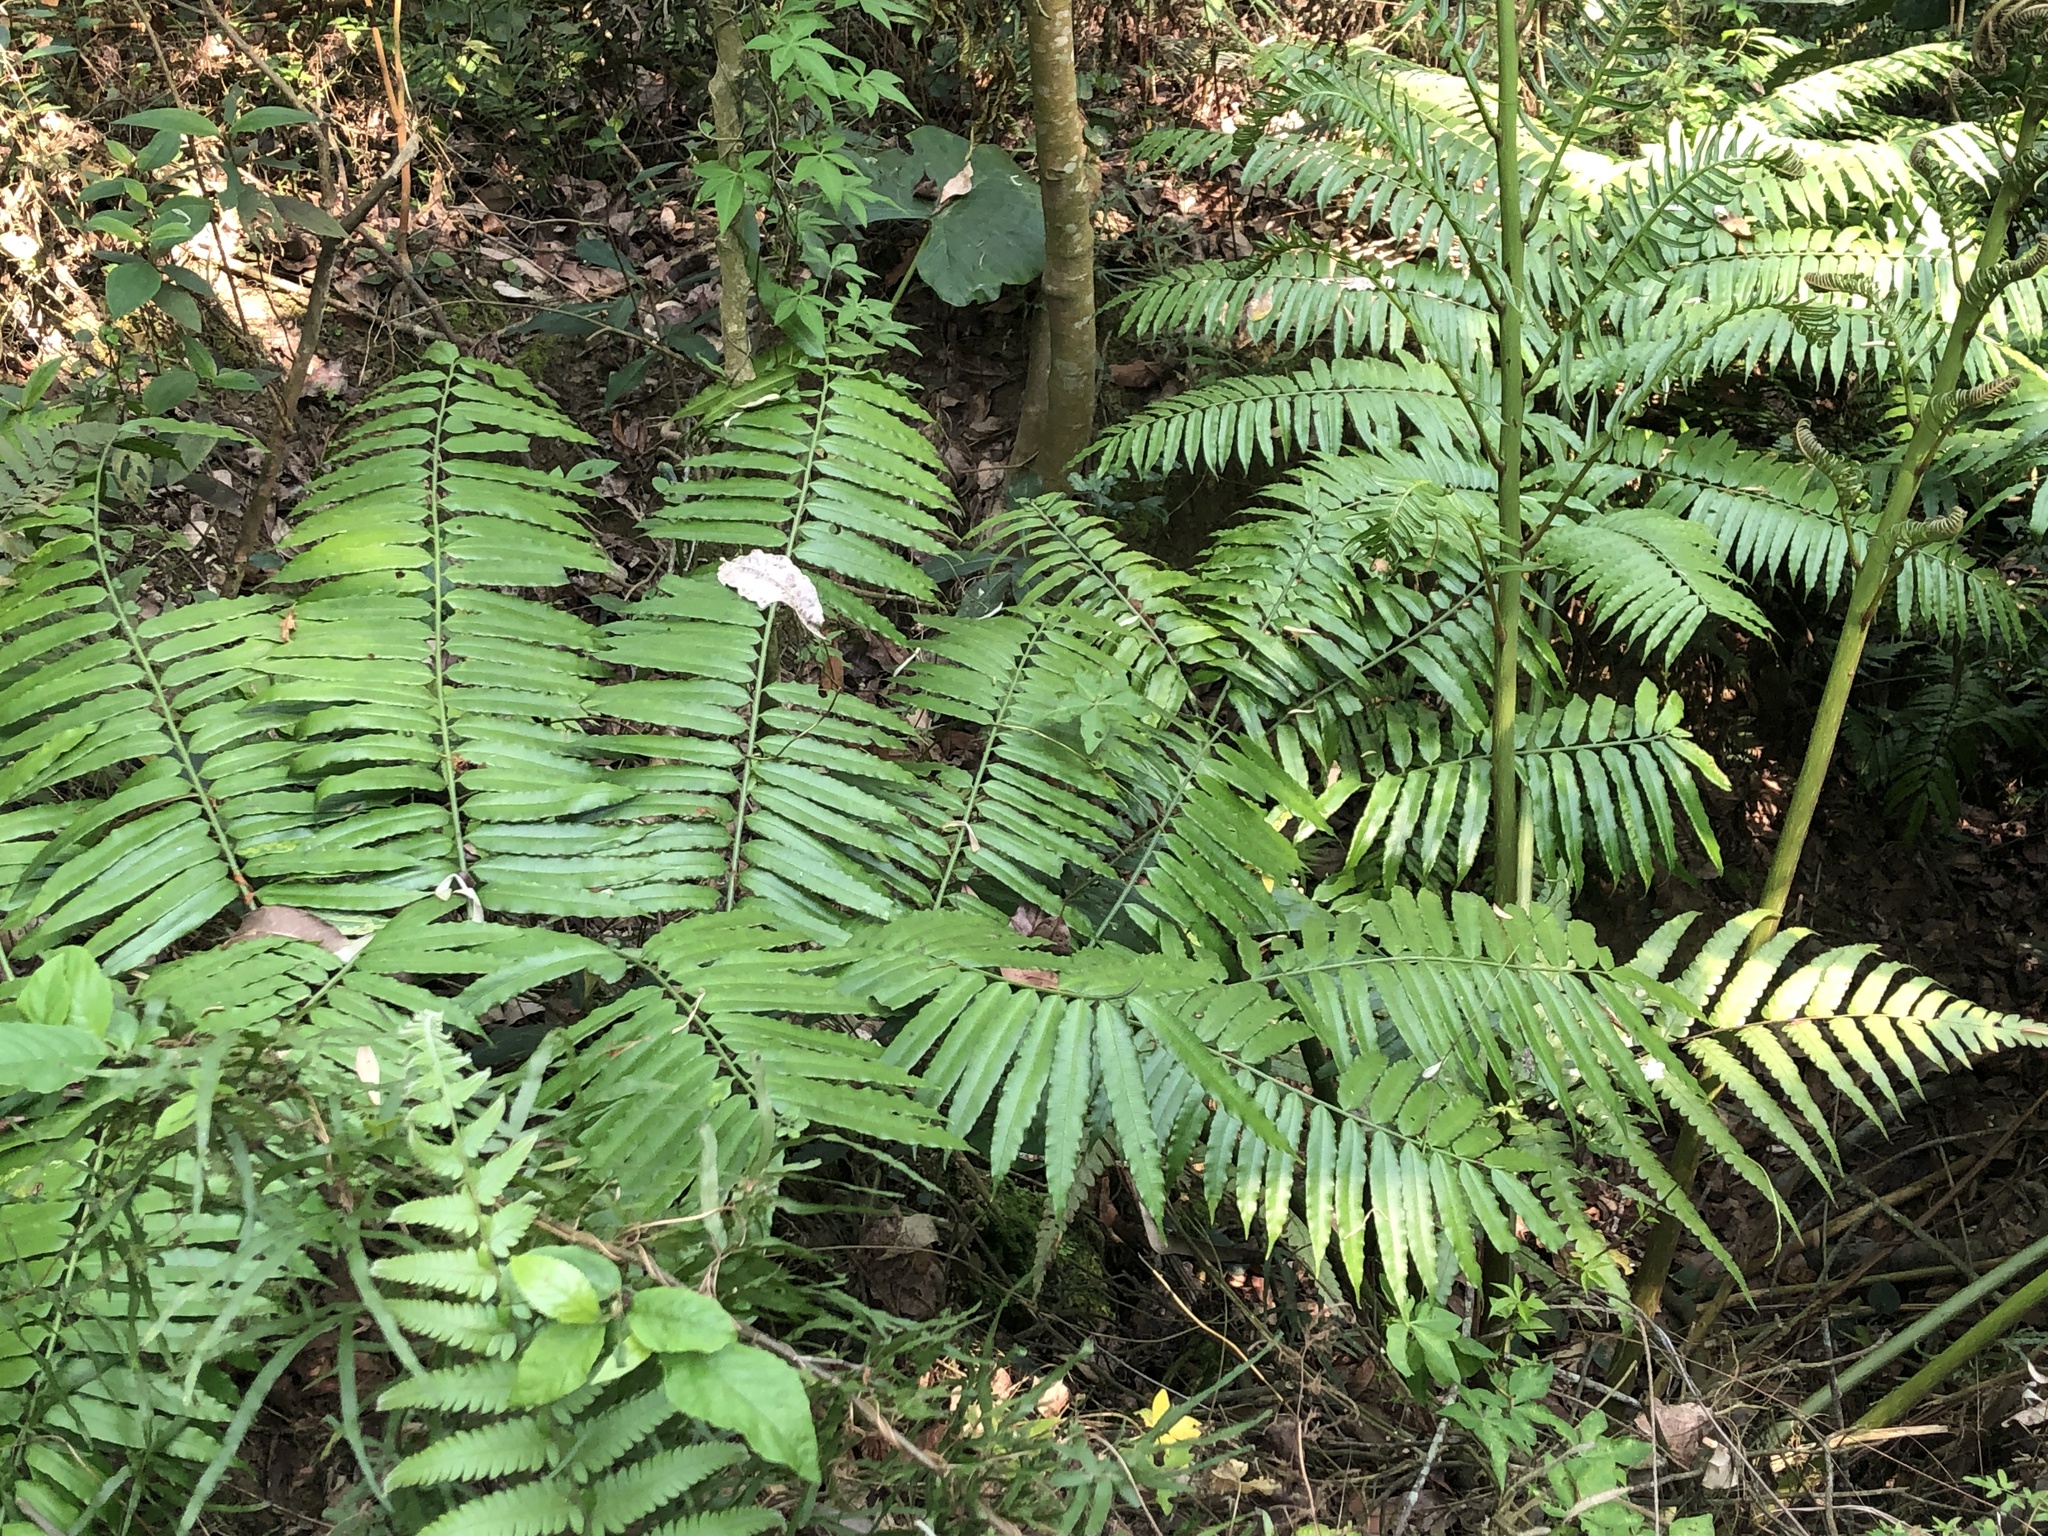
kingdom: Plantae
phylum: Tracheophyta
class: Polypodiopsida
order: Marattiales
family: Marattiaceae
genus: Angiopteris
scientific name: Angiopteris lygodiifolia
